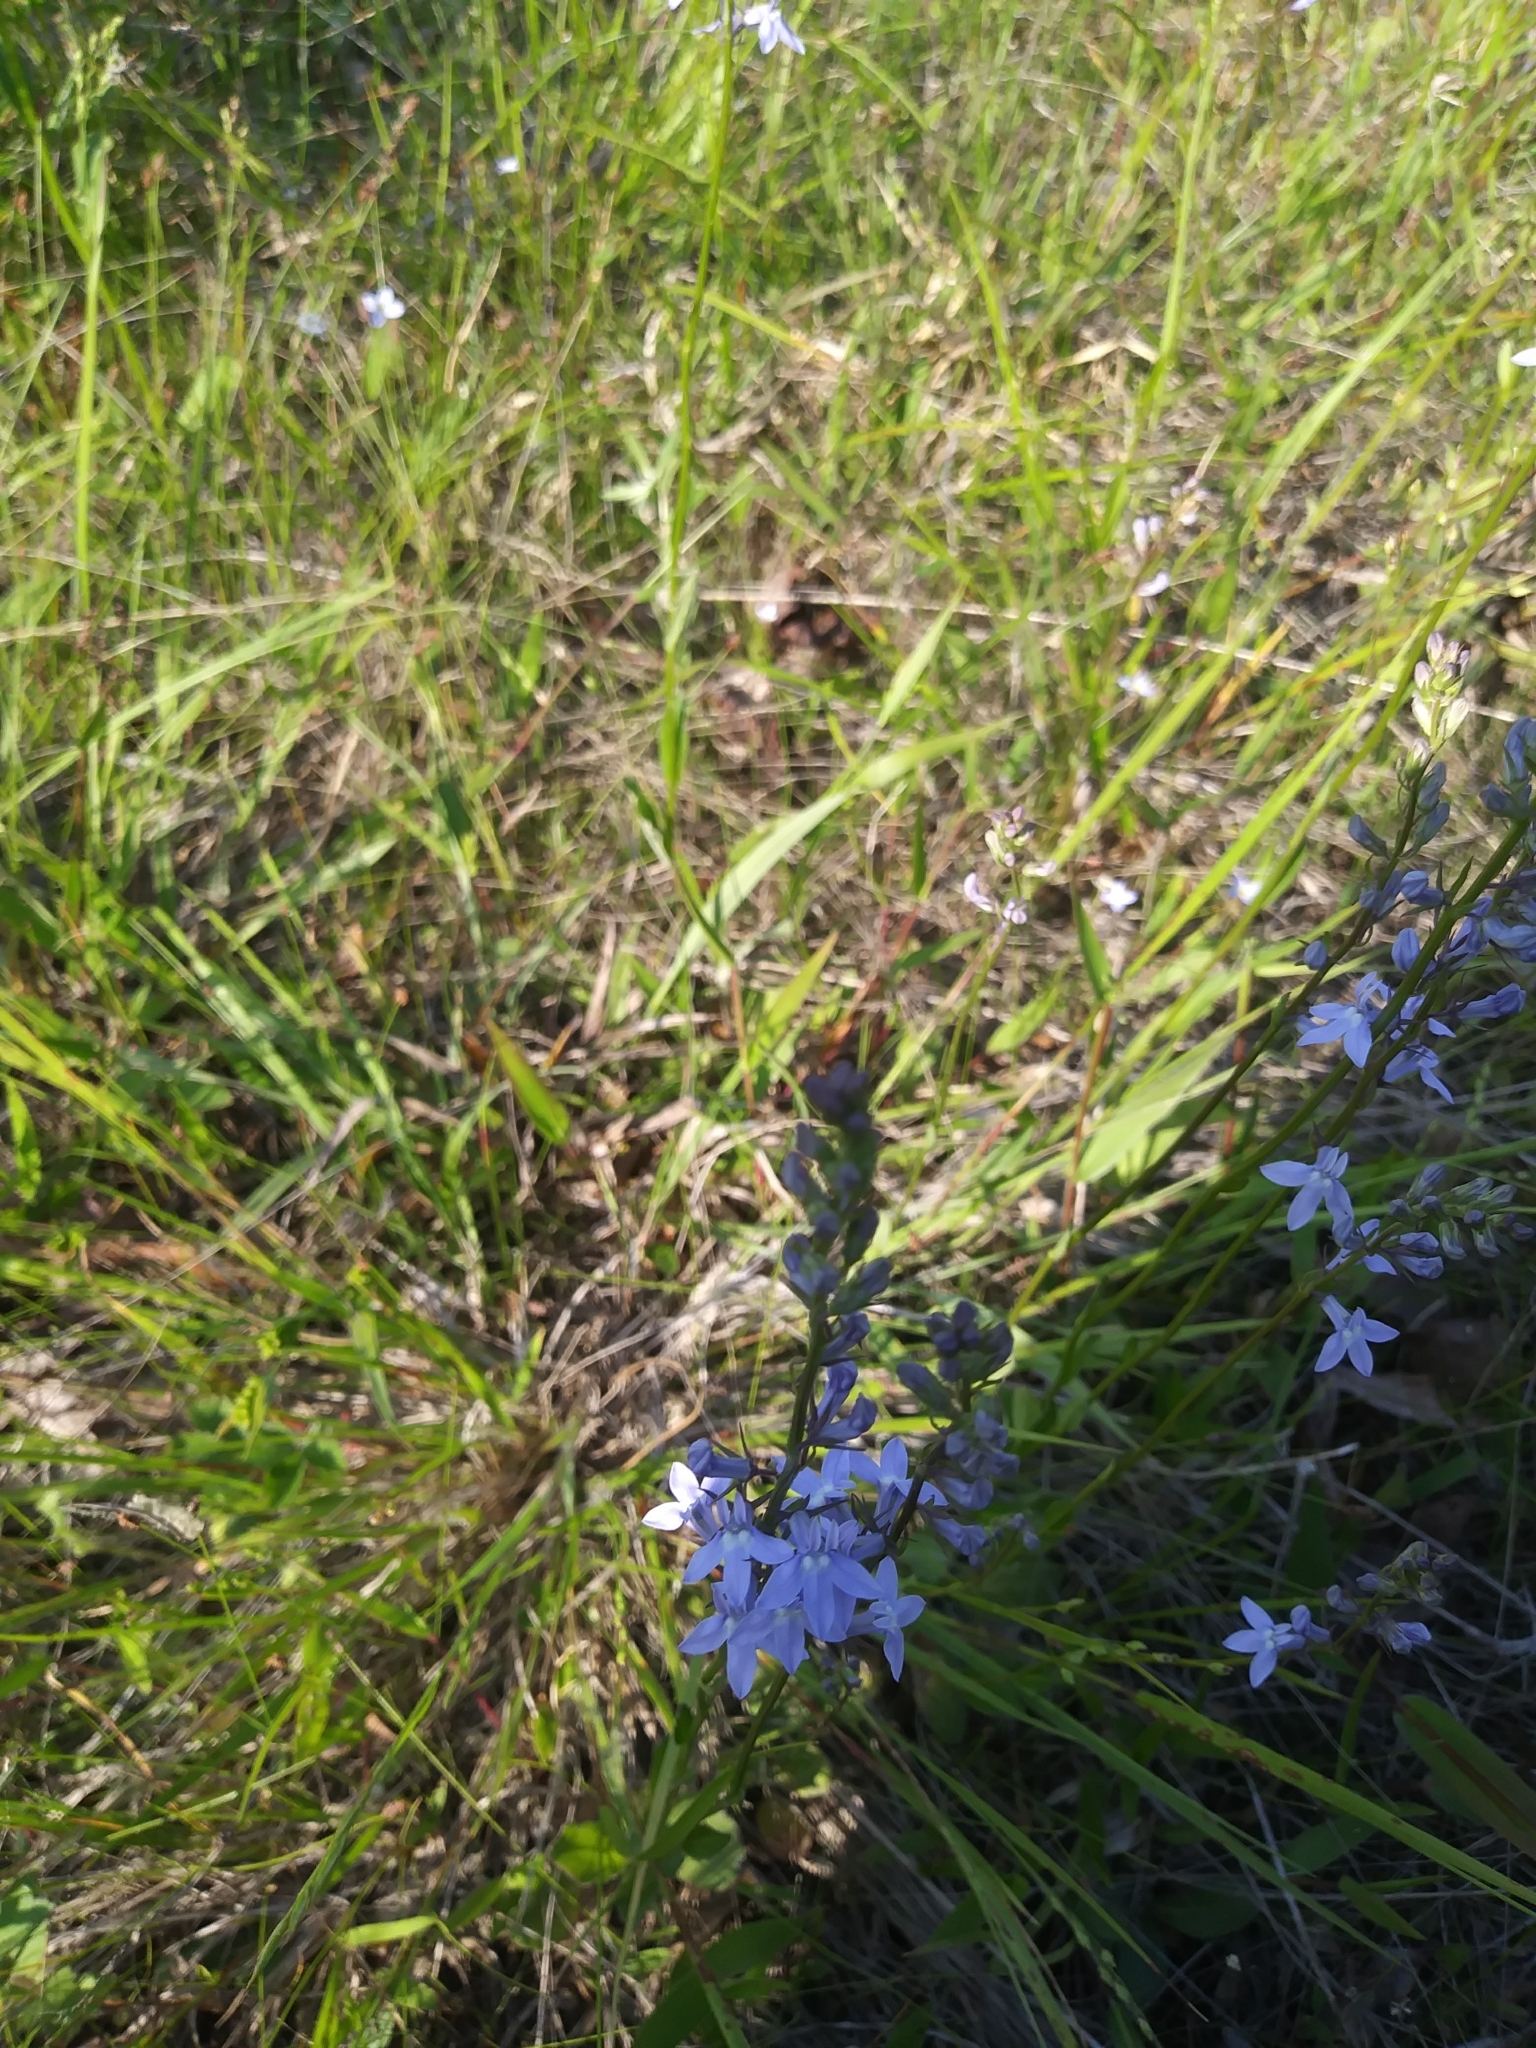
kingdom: Plantae
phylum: Tracheophyta
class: Magnoliopsida
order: Asterales
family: Campanulaceae
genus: Lobelia
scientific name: Lobelia spicata
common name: Pale-spike lobelia
